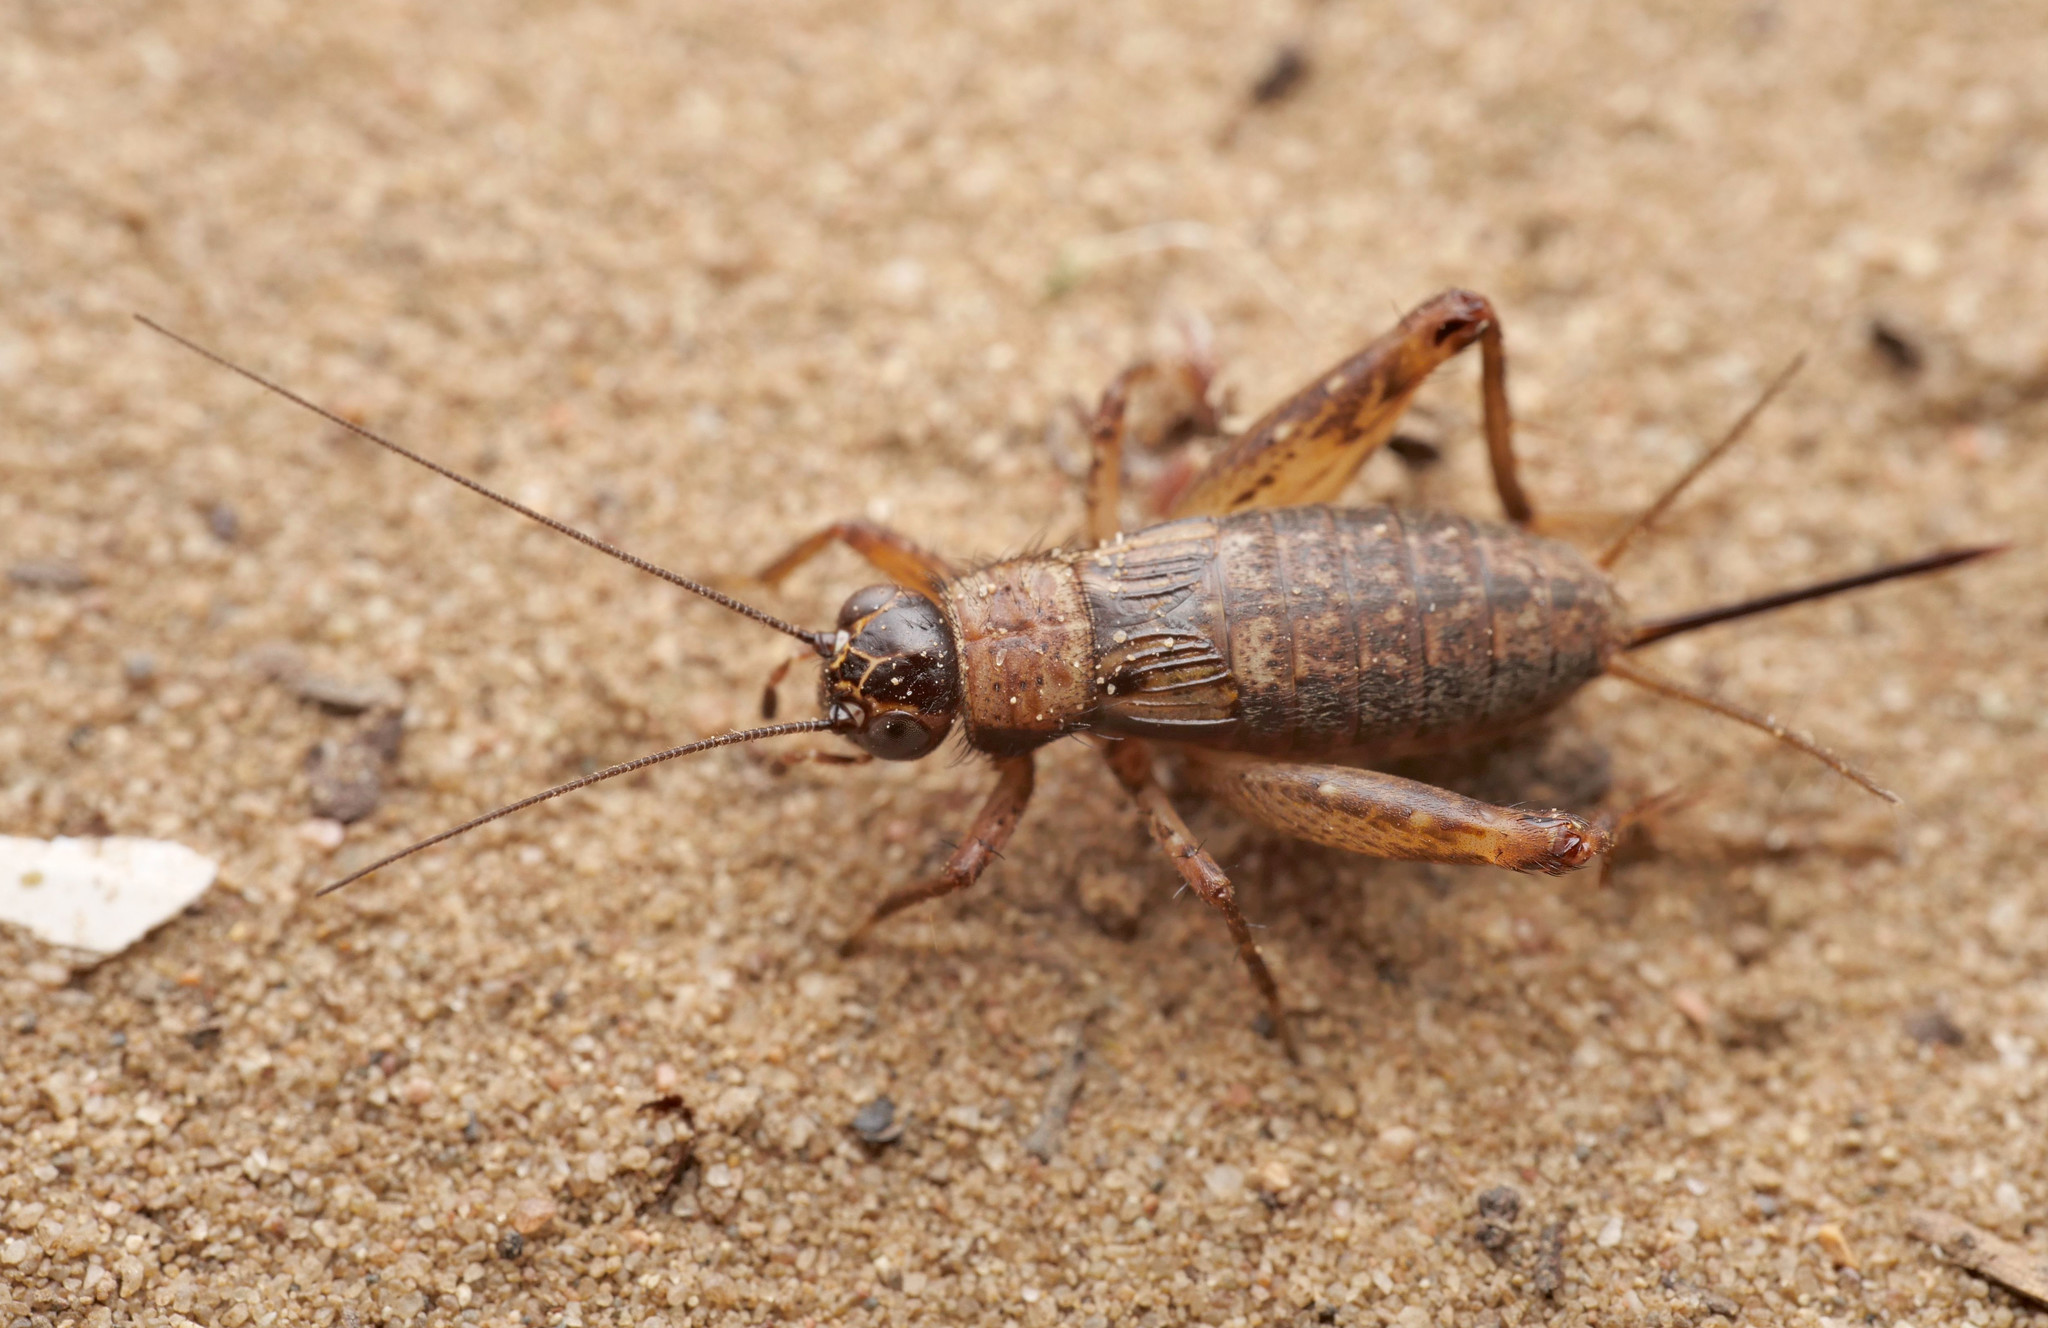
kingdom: Animalia
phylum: Arthropoda
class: Insecta
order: Orthoptera
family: Trigonidiidae
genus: Nemobius
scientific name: Nemobius sylvestris
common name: Wood-cricket
